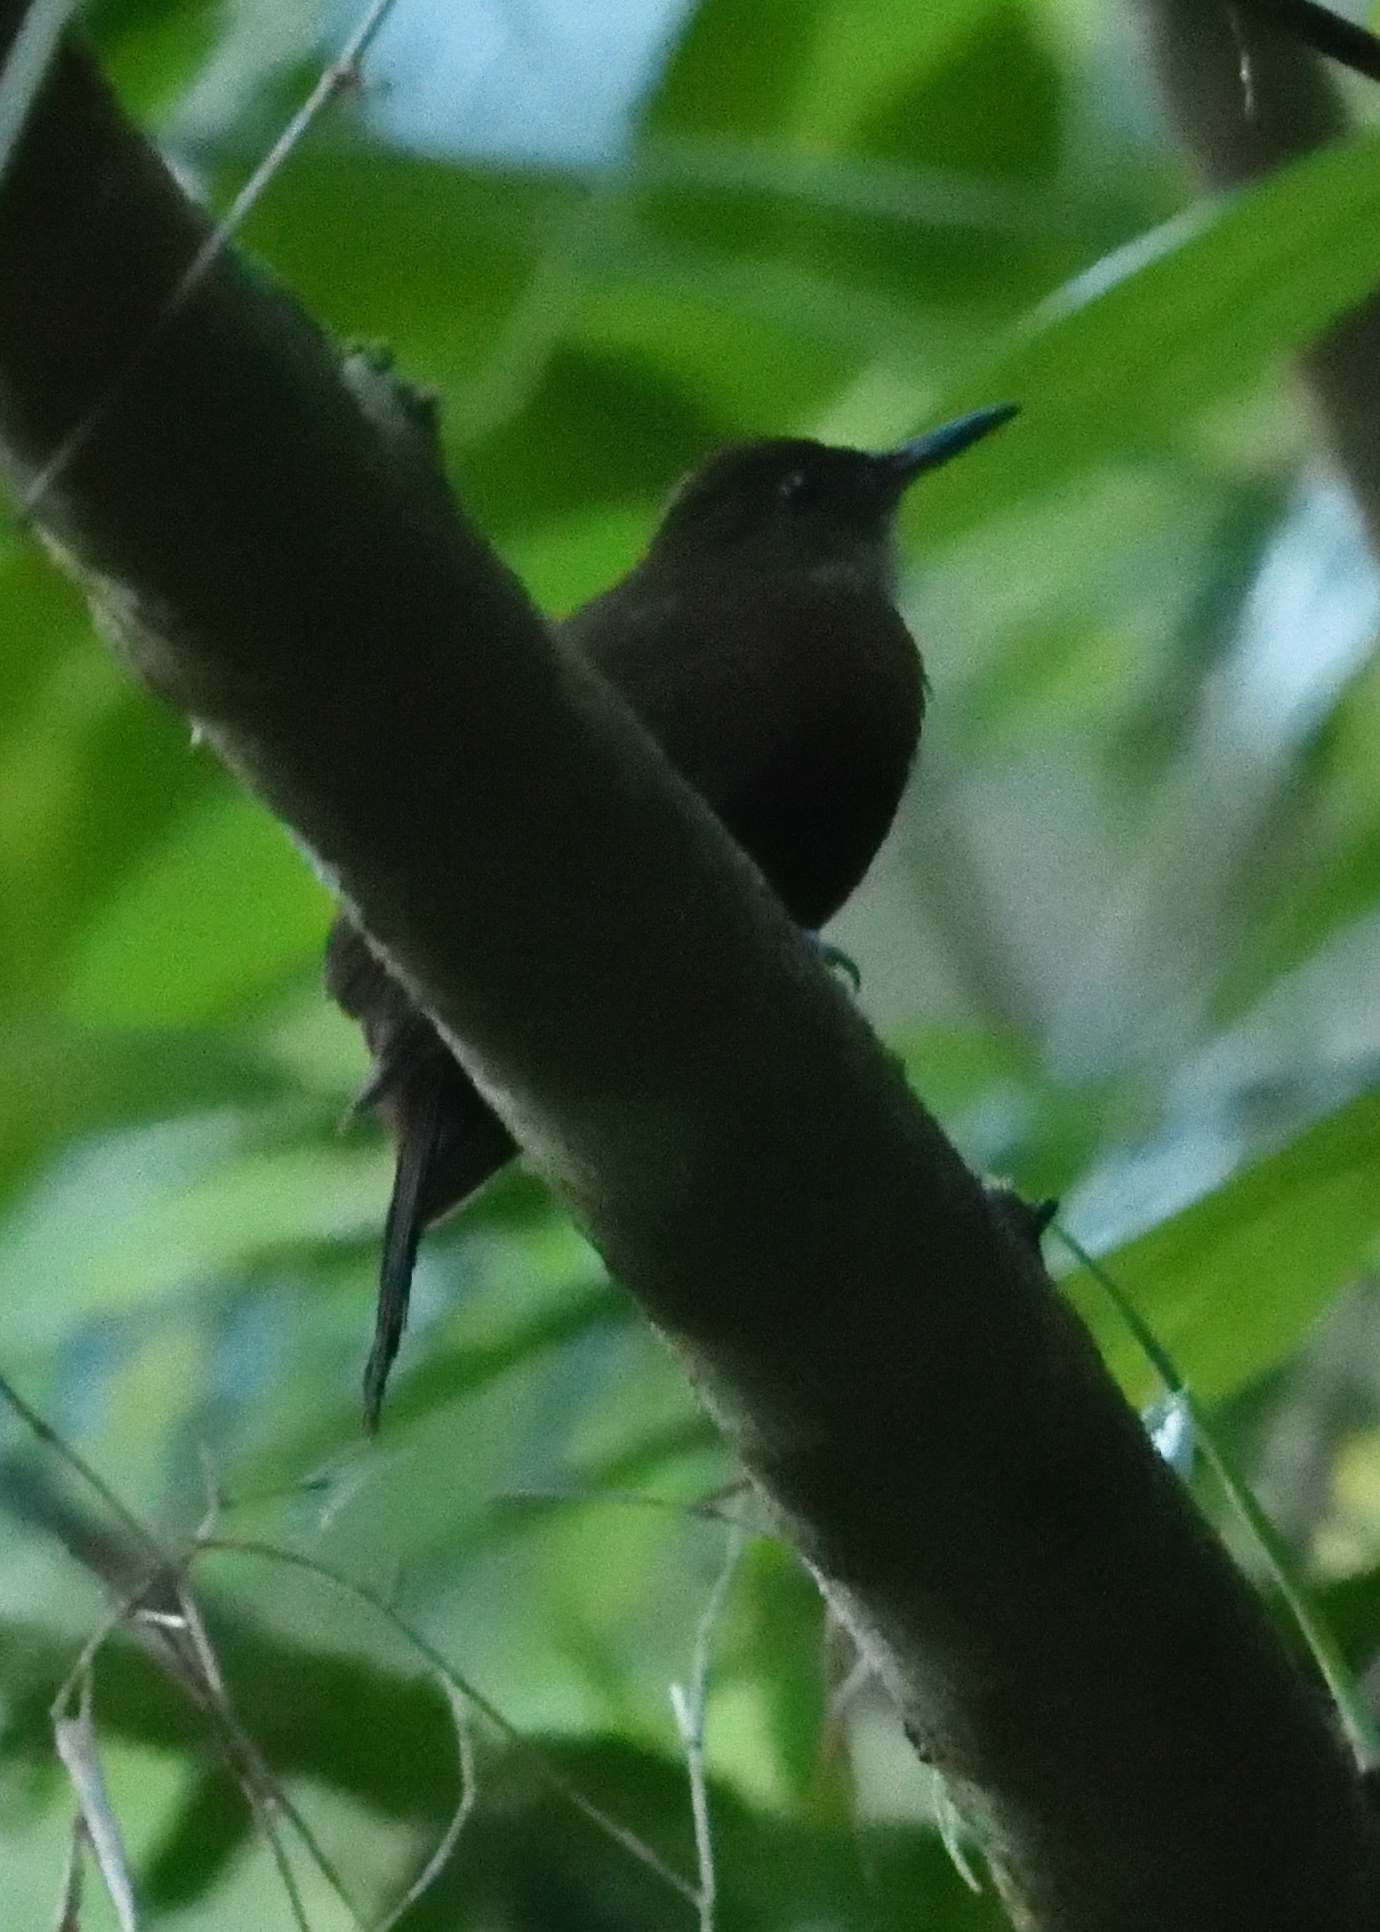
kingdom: Animalia
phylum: Chordata
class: Aves
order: Passeriformes
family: Furnariidae
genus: Sclerurus
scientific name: Sclerurus albigularis
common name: Gray-throated leaftosser
